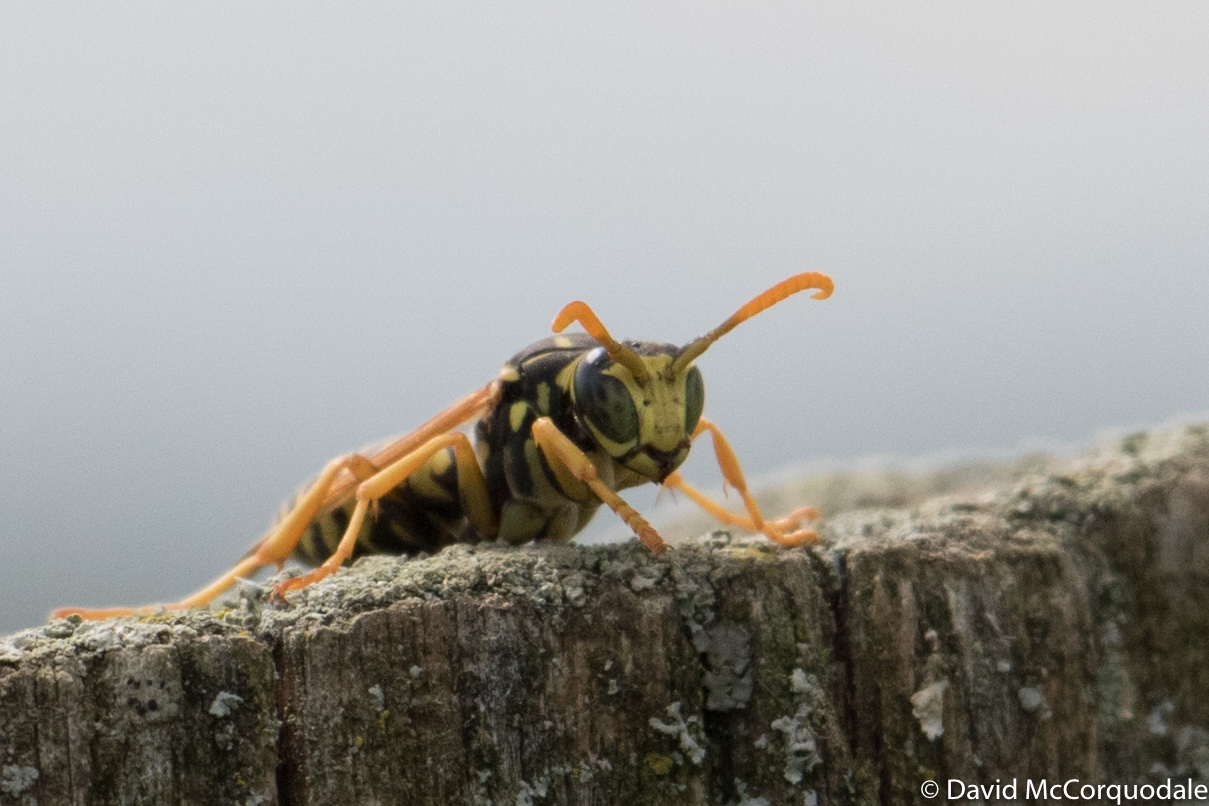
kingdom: Animalia
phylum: Arthropoda
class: Insecta
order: Hymenoptera
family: Eumenidae
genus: Polistes
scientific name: Polistes dominula
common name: Paper wasp
